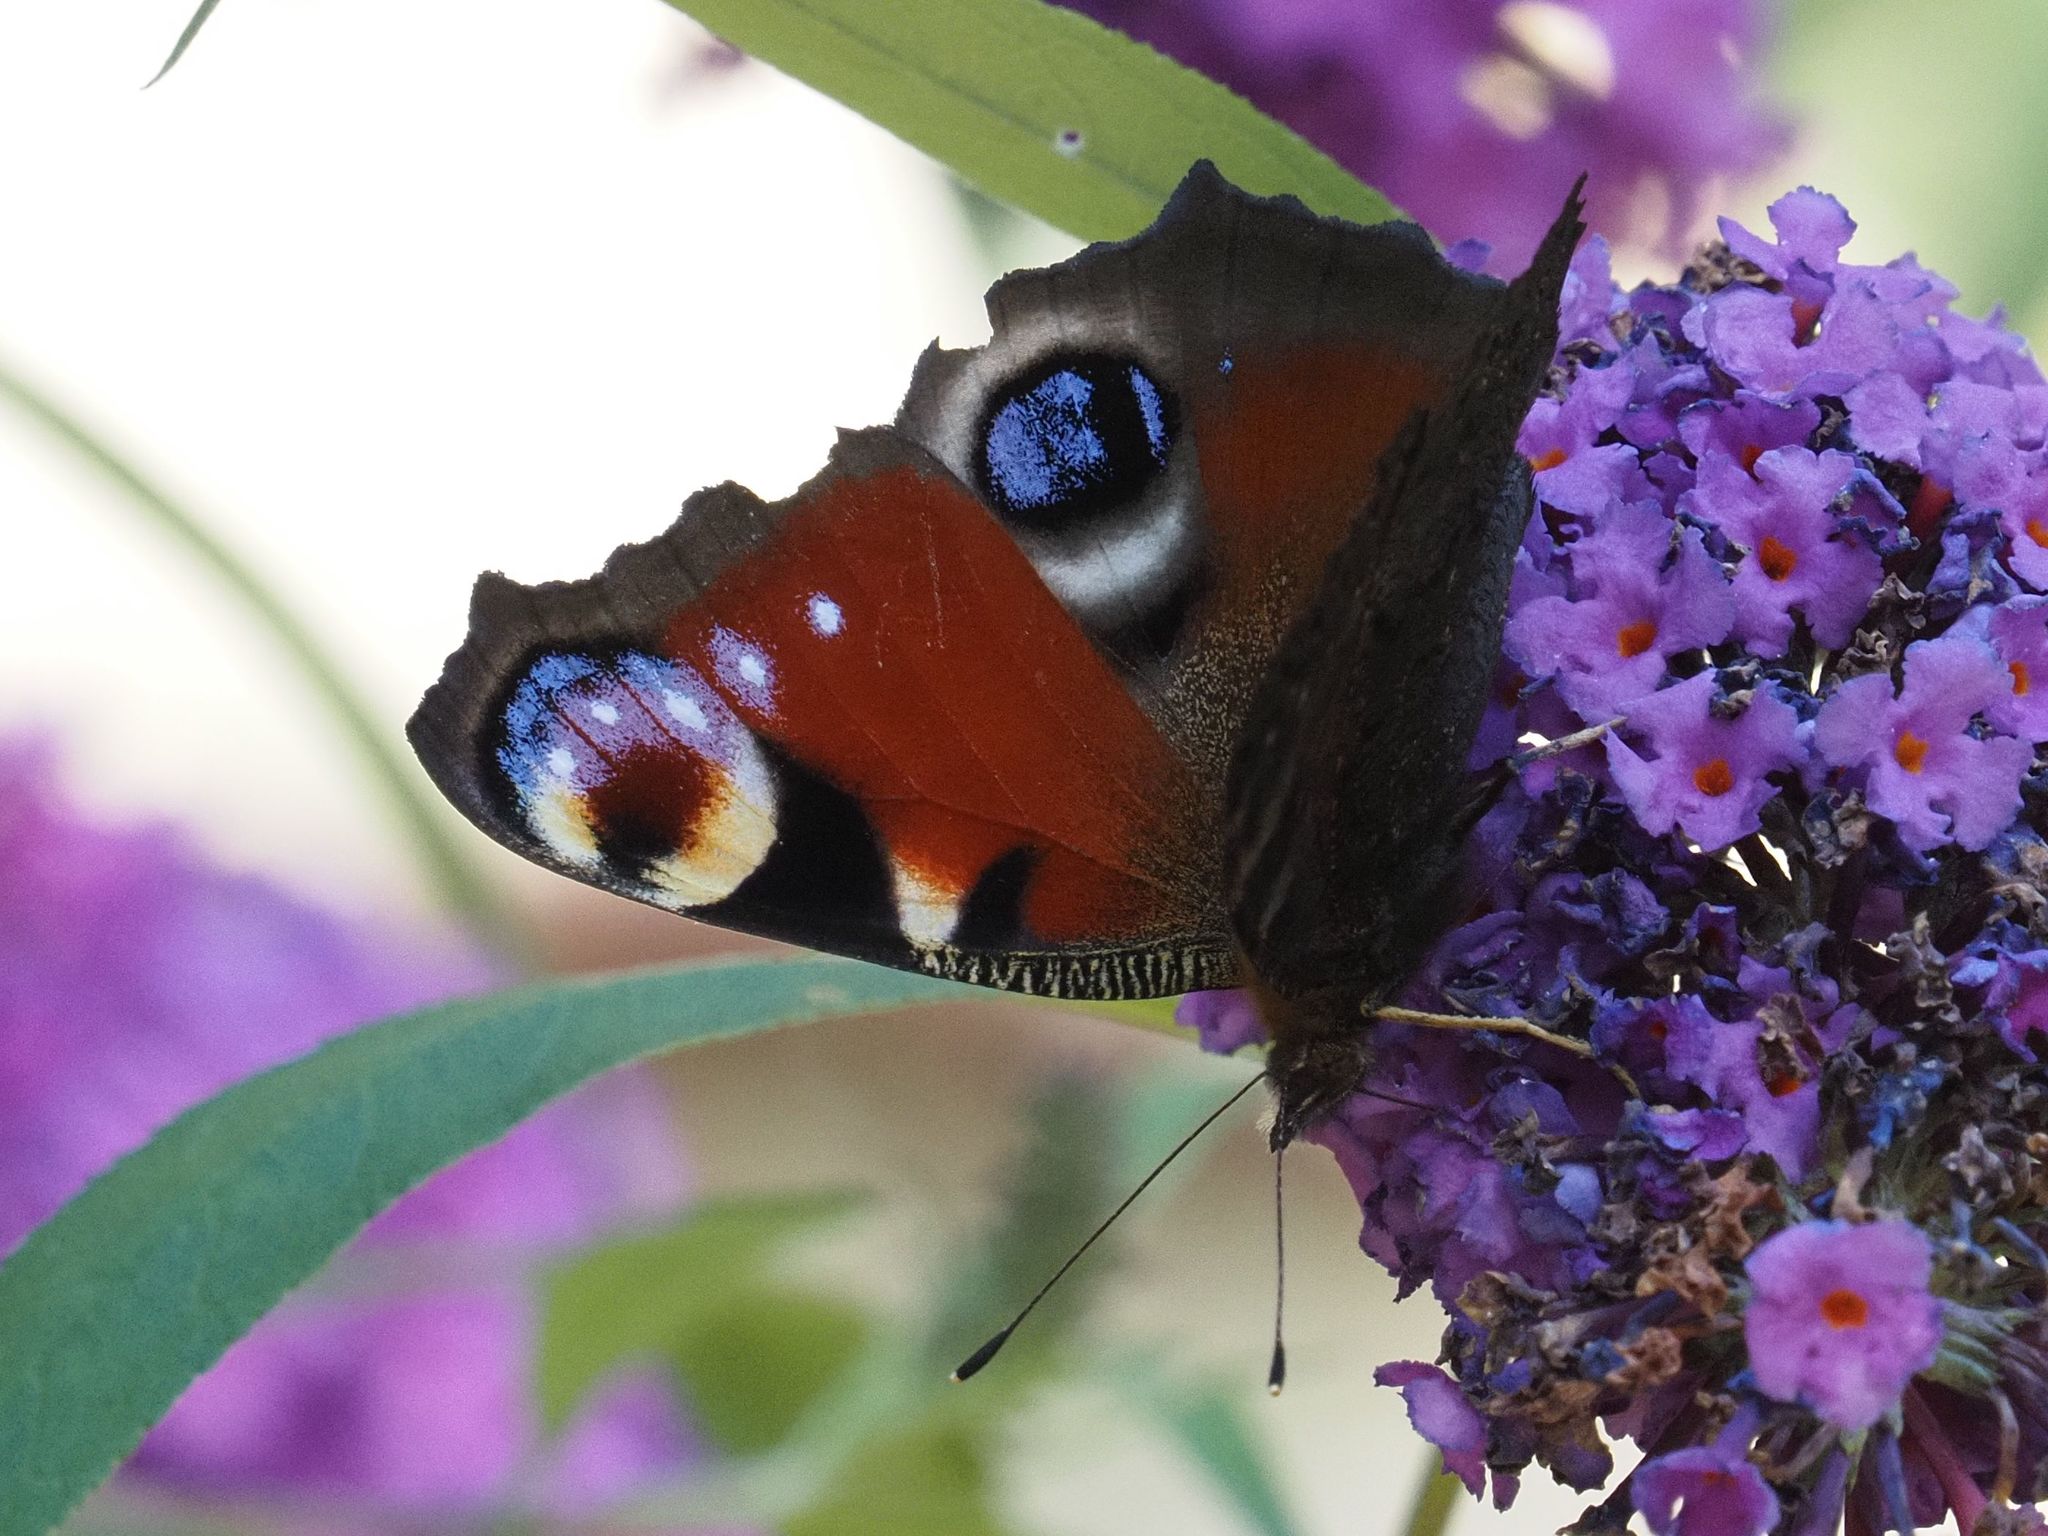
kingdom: Animalia
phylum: Arthropoda
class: Insecta
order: Lepidoptera
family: Nymphalidae
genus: Aglais
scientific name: Aglais io
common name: Peacock
